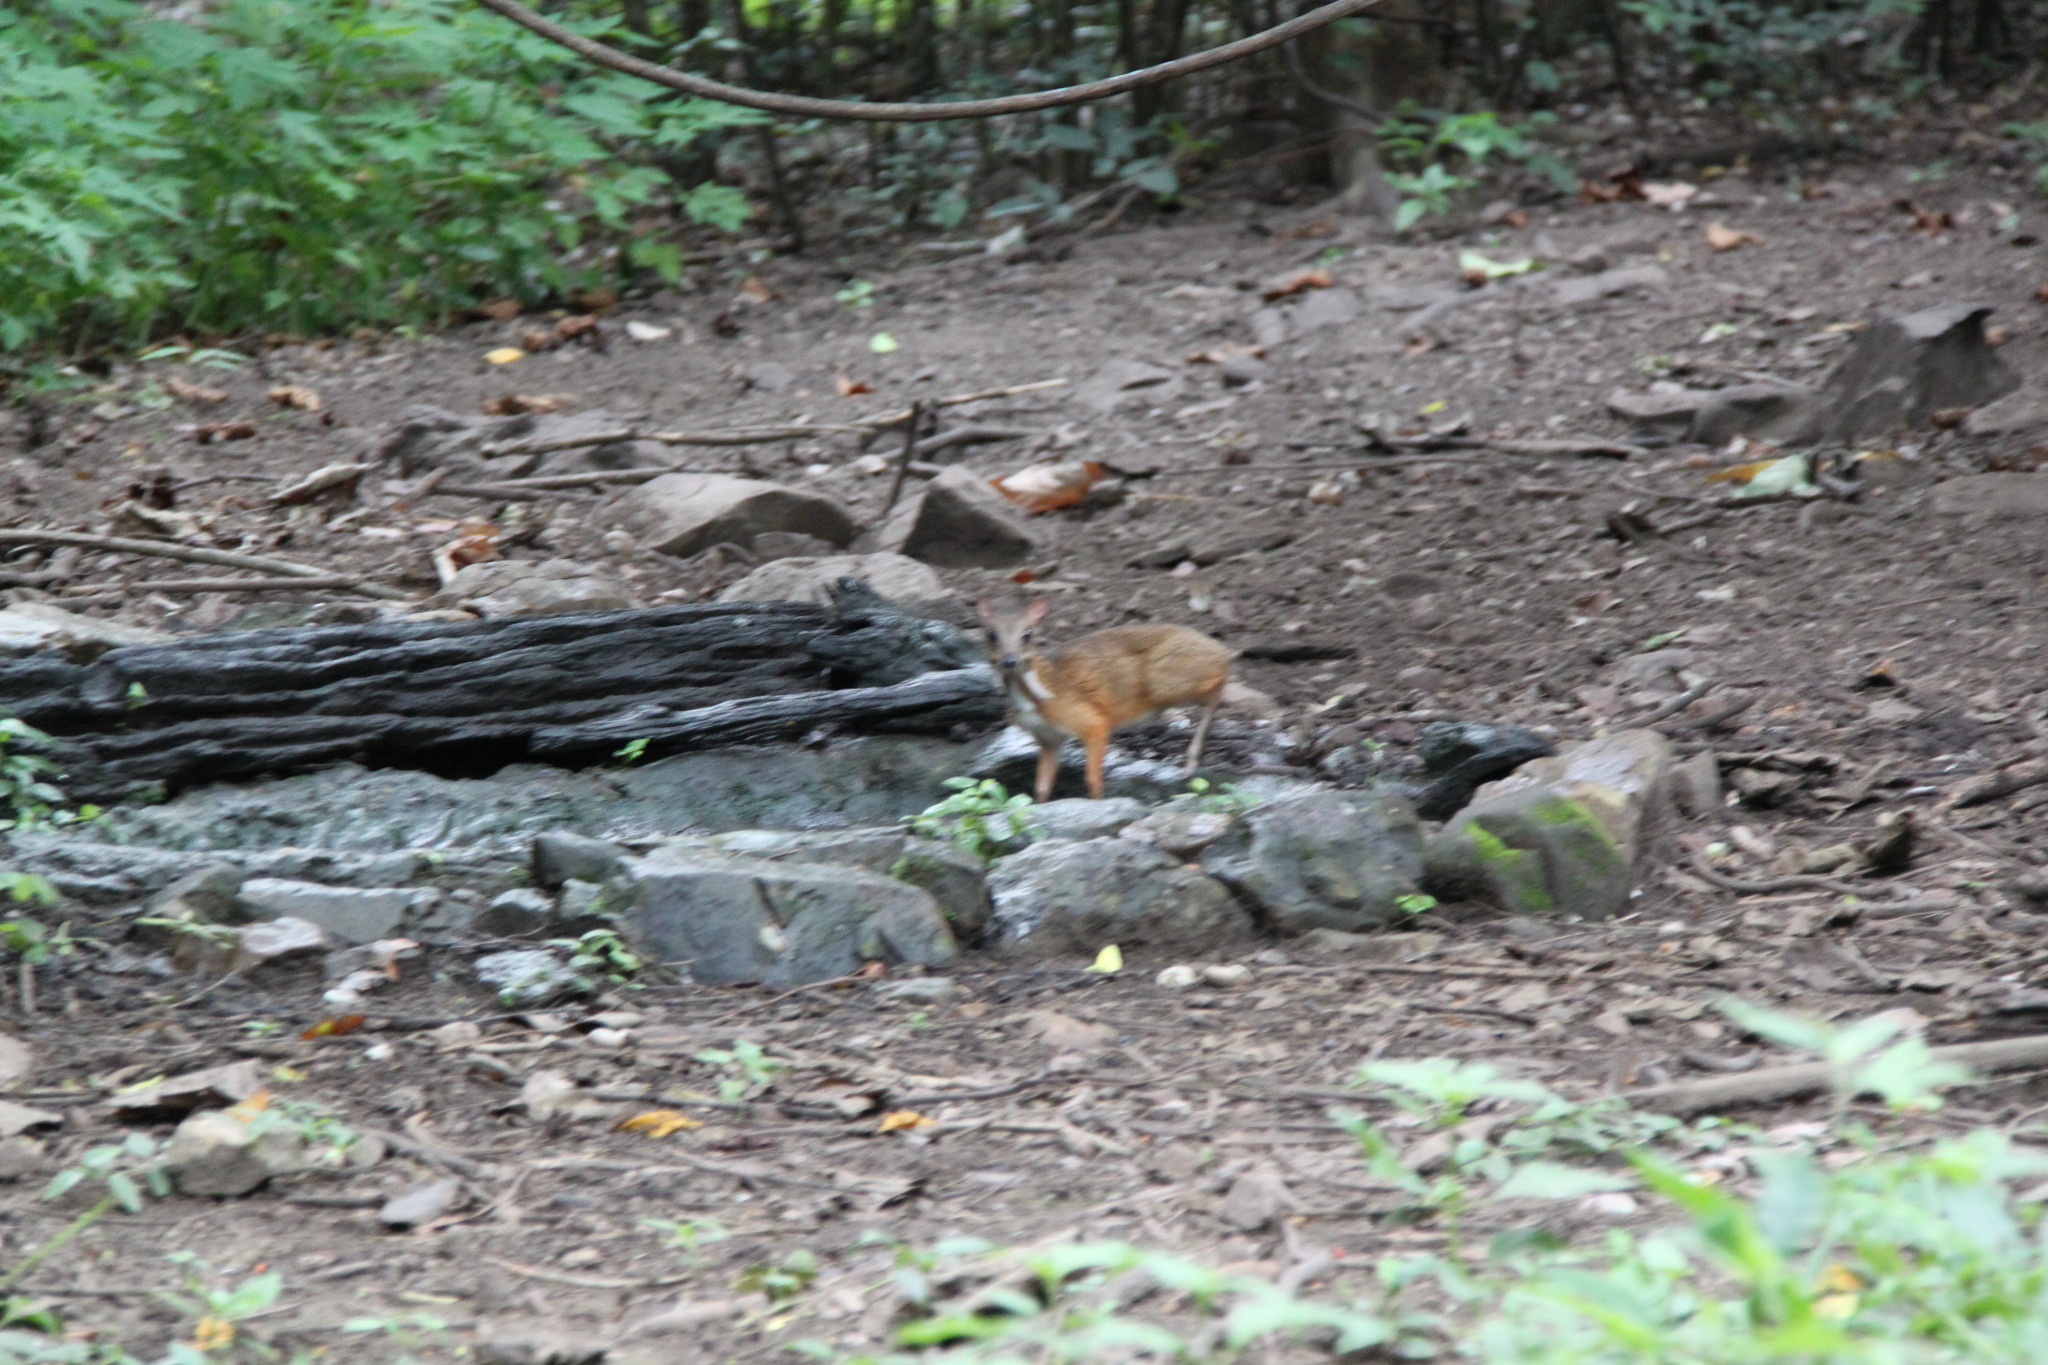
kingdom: Animalia
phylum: Chordata
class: Mammalia
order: Artiodactyla
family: Tragulidae
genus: Tragulus
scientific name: Tragulus kanchil
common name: Lesser mouse-deer
